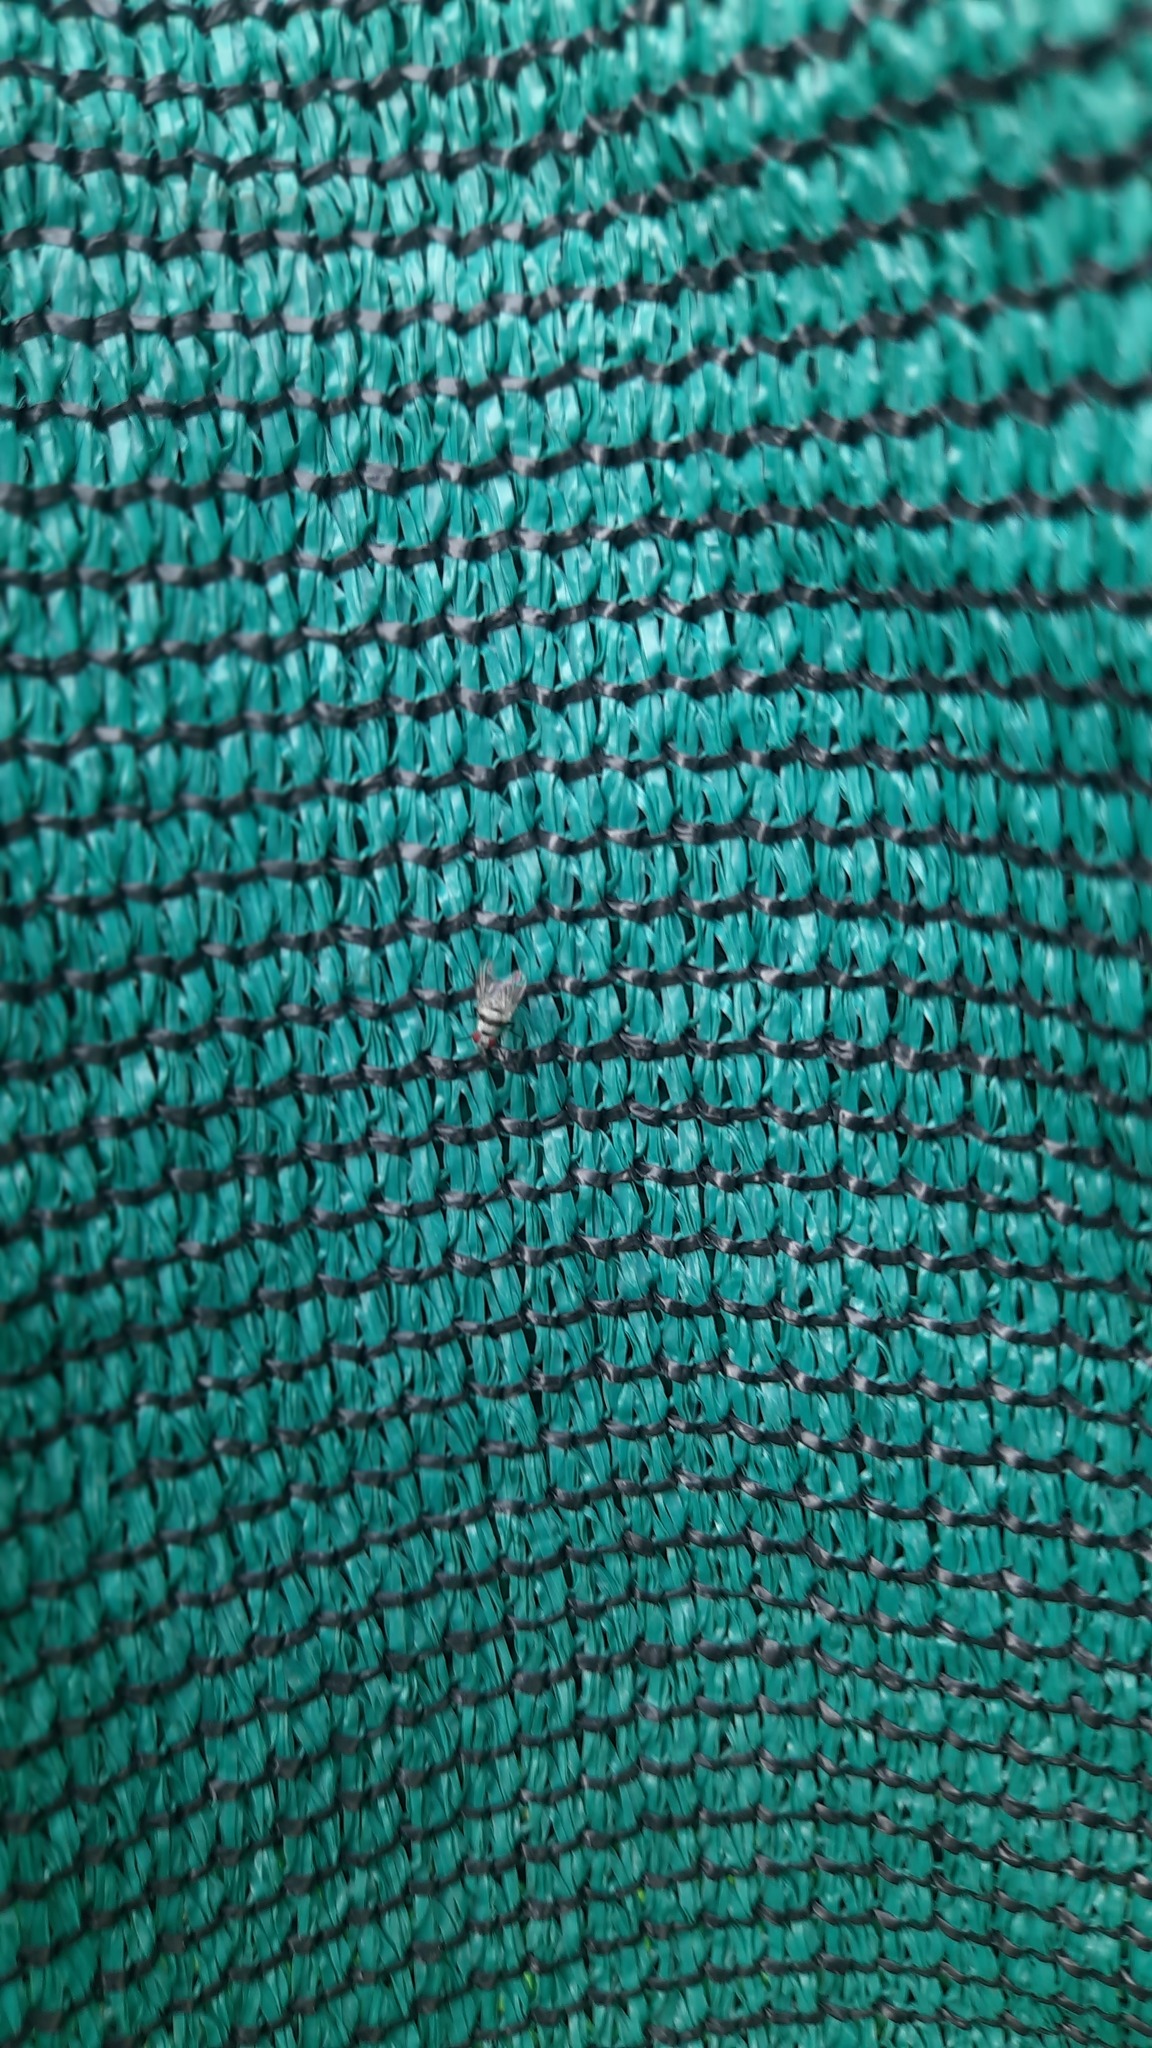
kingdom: Animalia
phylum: Arthropoda
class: Insecta
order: Diptera
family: Anthomyiidae
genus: Anthomyia
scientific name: Anthomyia illocata
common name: Fly
